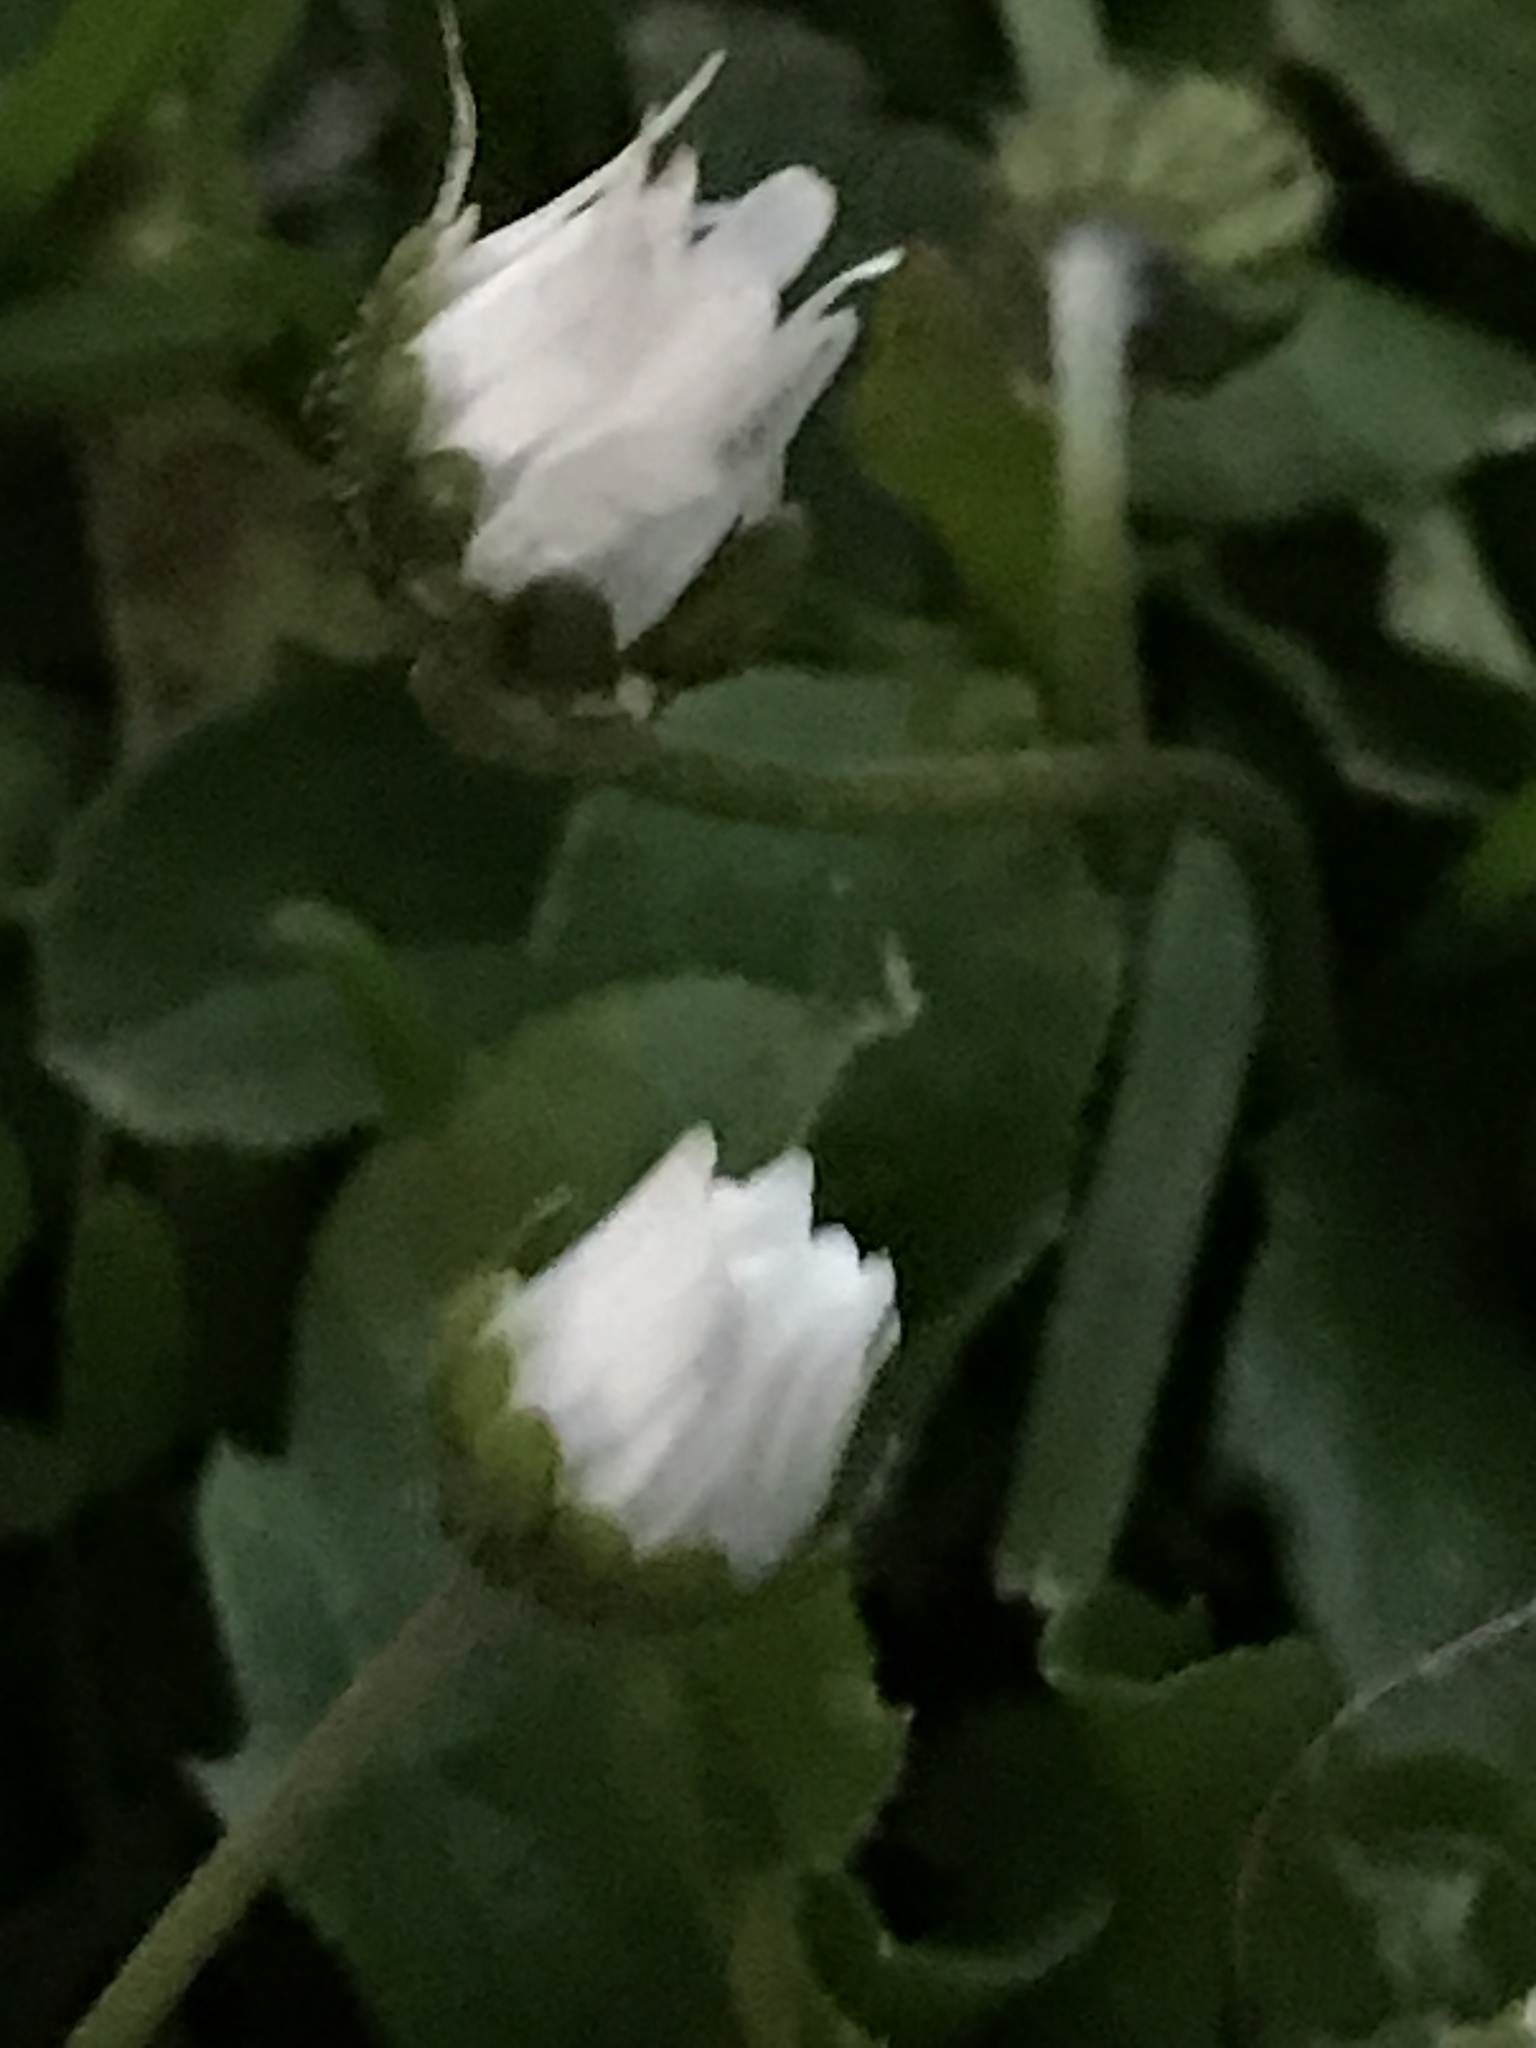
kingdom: Plantae
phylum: Tracheophyta
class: Magnoliopsida
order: Asterales
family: Asteraceae
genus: Bellis
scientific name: Bellis perennis
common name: Lawndaisy
